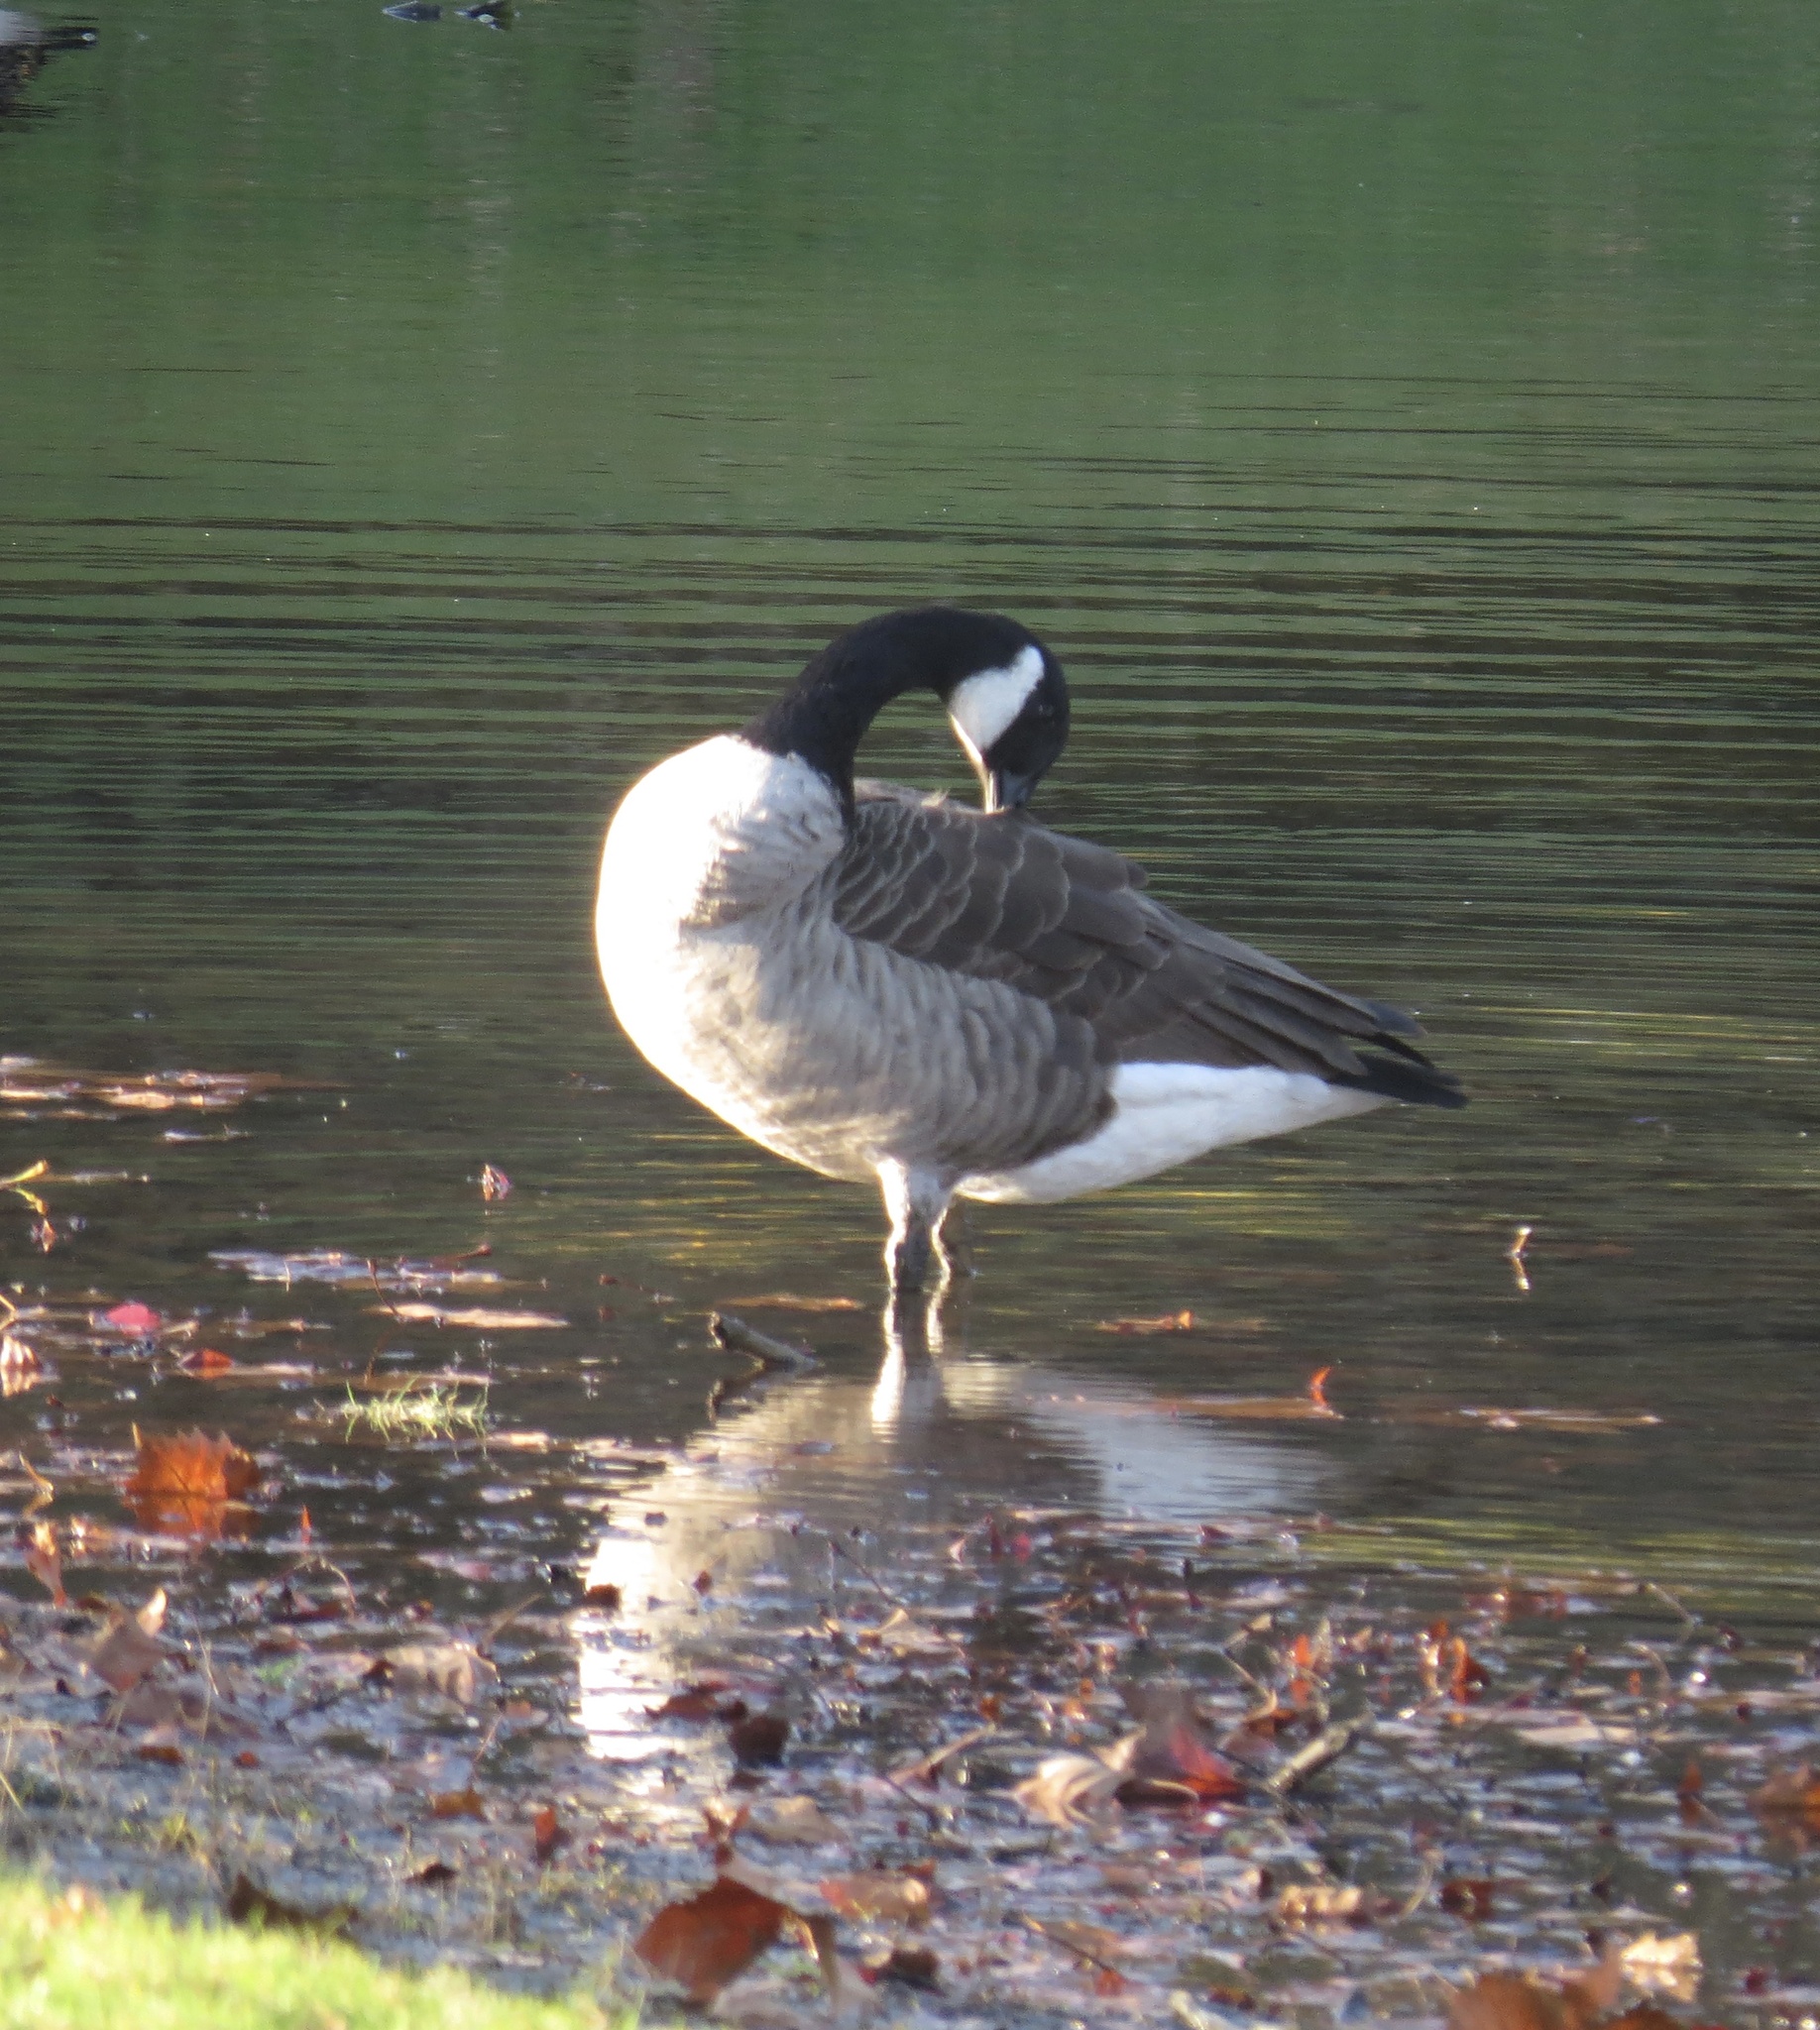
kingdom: Animalia
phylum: Chordata
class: Aves
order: Anseriformes
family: Anatidae
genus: Branta
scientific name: Branta canadensis
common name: Canada goose
